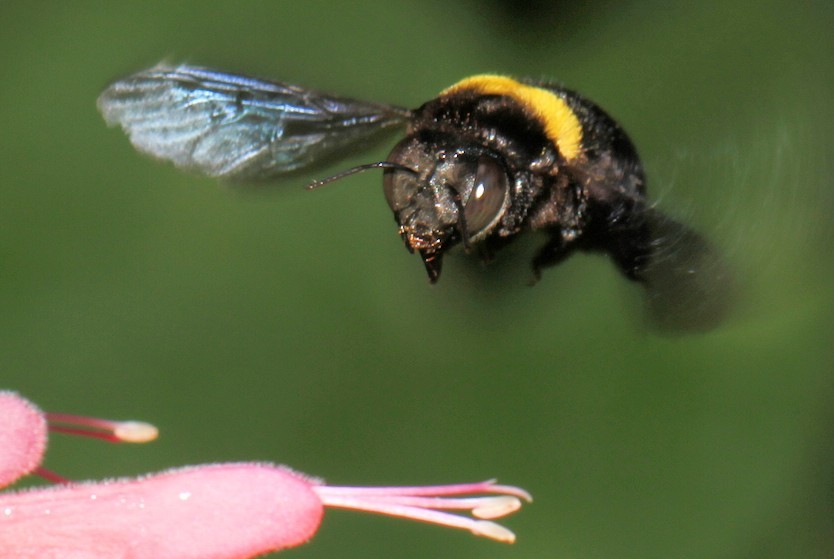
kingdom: Animalia
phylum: Arthropoda
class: Insecta
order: Hymenoptera
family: Apidae
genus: Xylocopa
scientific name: Xylocopa flavicollis
